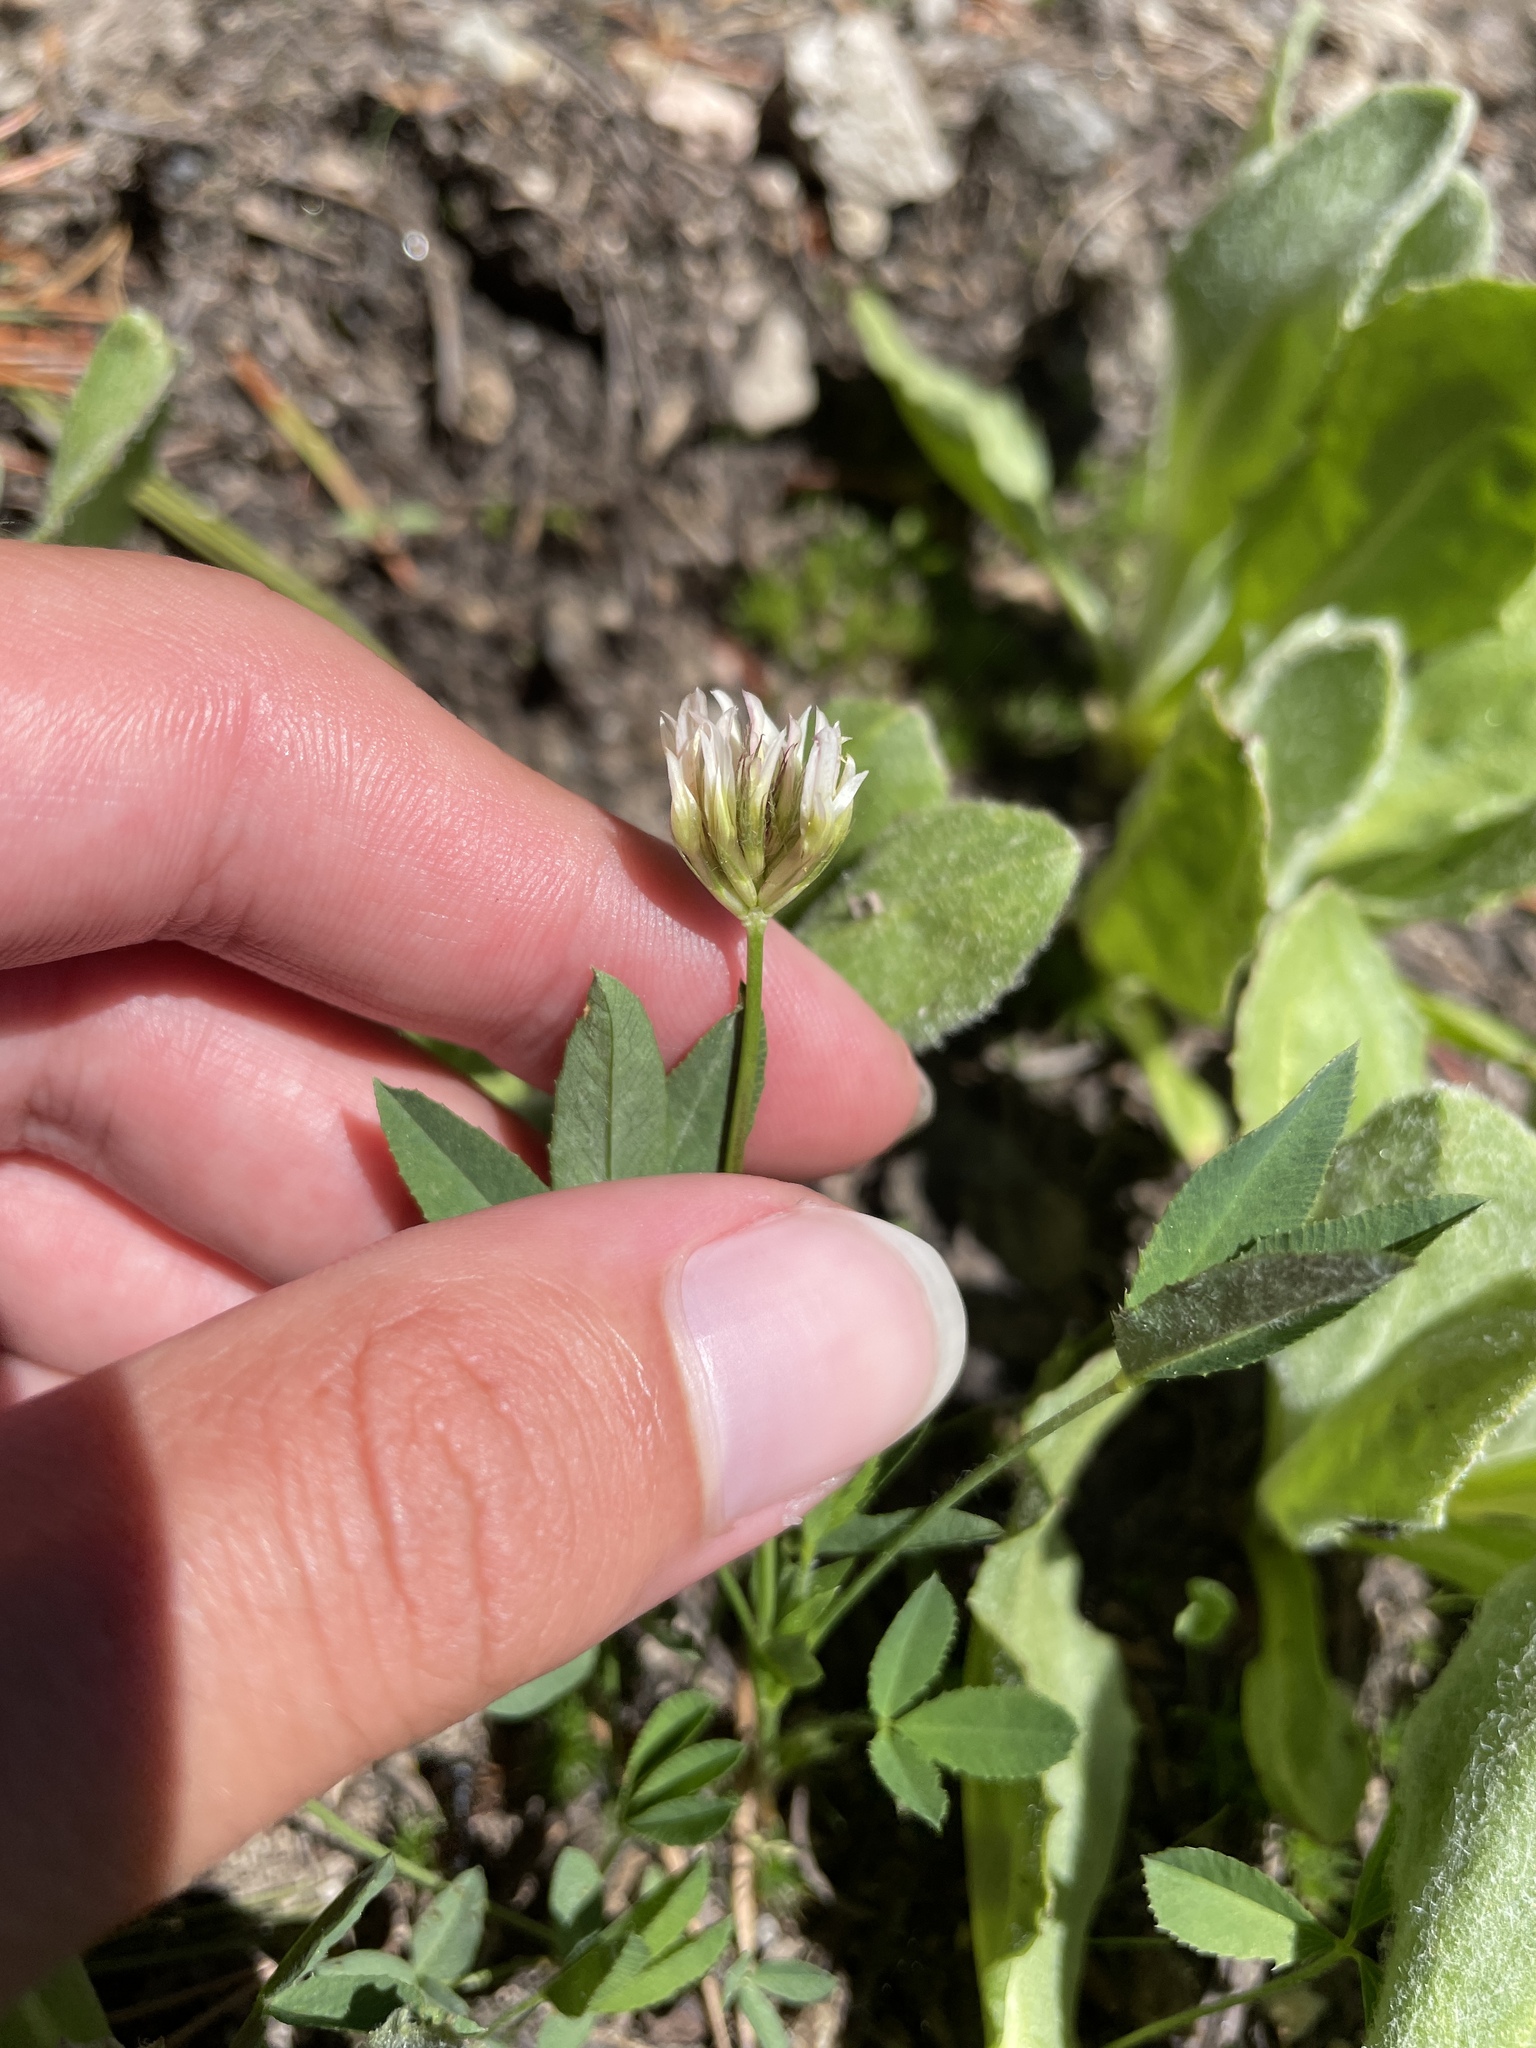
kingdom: Plantae
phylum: Tracheophyta
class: Magnoliopsida
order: Fabales
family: Fabaceae
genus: Trifolium
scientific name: Trifolium longipes
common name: Long-stalk clover
